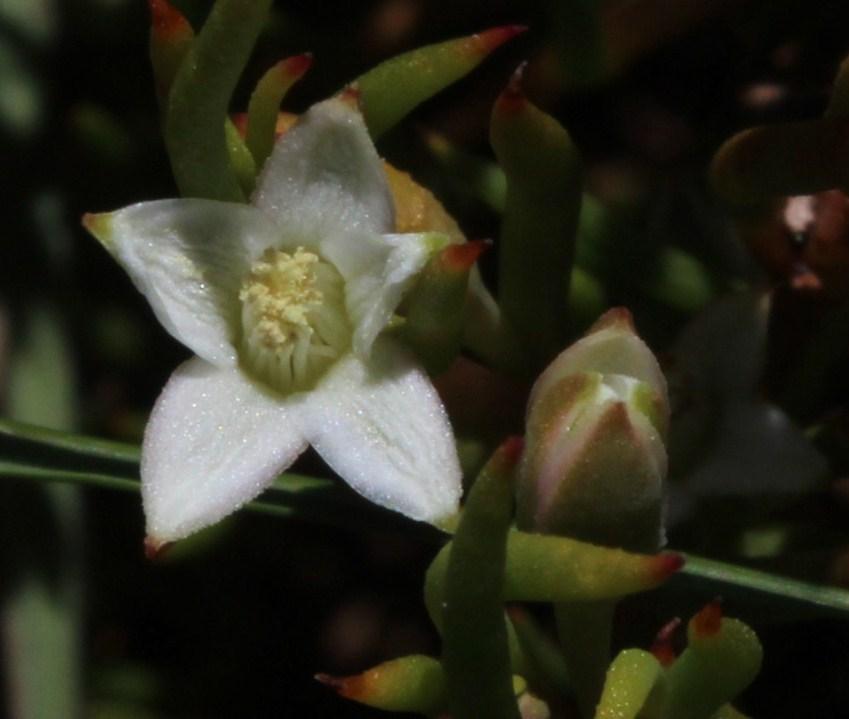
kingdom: Plantae
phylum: Tracheophyta
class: Magnoliopsida
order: Caryophyllales
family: Aizoaceae
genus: Acrosanthes
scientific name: Acrosanthes teretifolia
